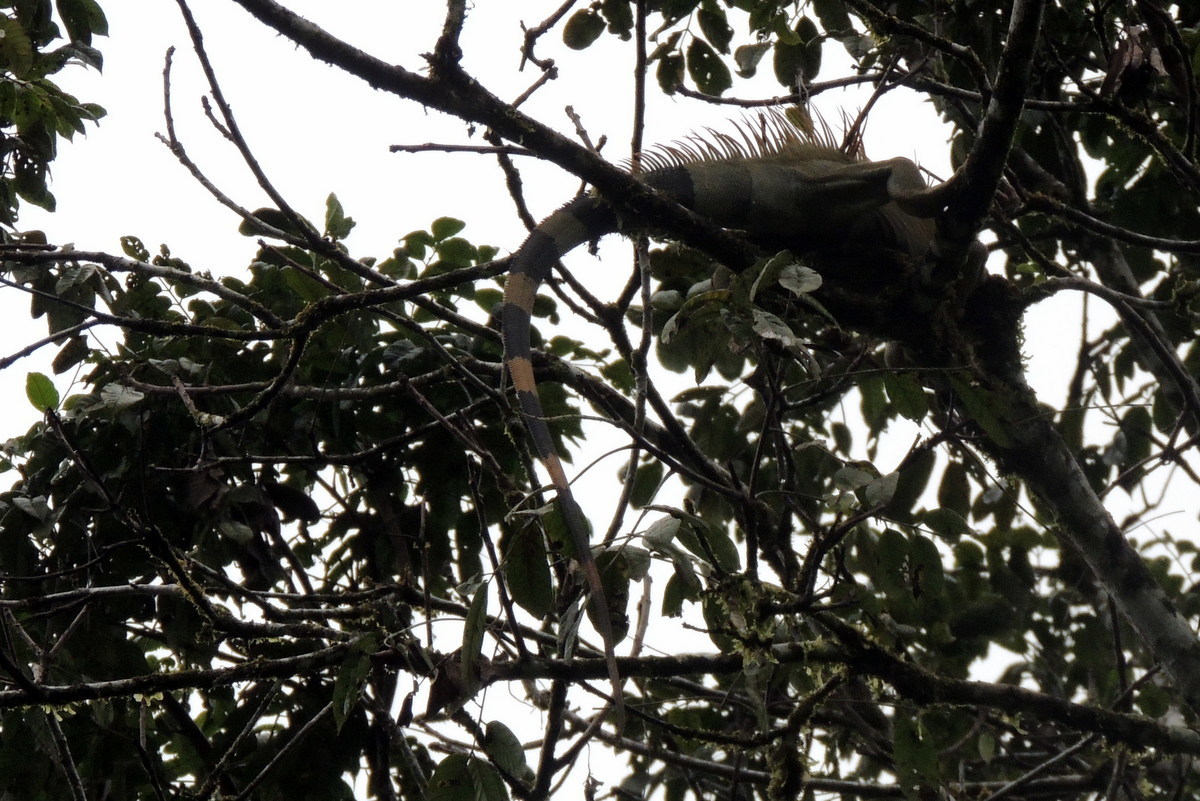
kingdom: Animalia
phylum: Chordata
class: Squamata
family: Iguanidae
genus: Iguana
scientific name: Iguana iguana
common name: Green iguana
